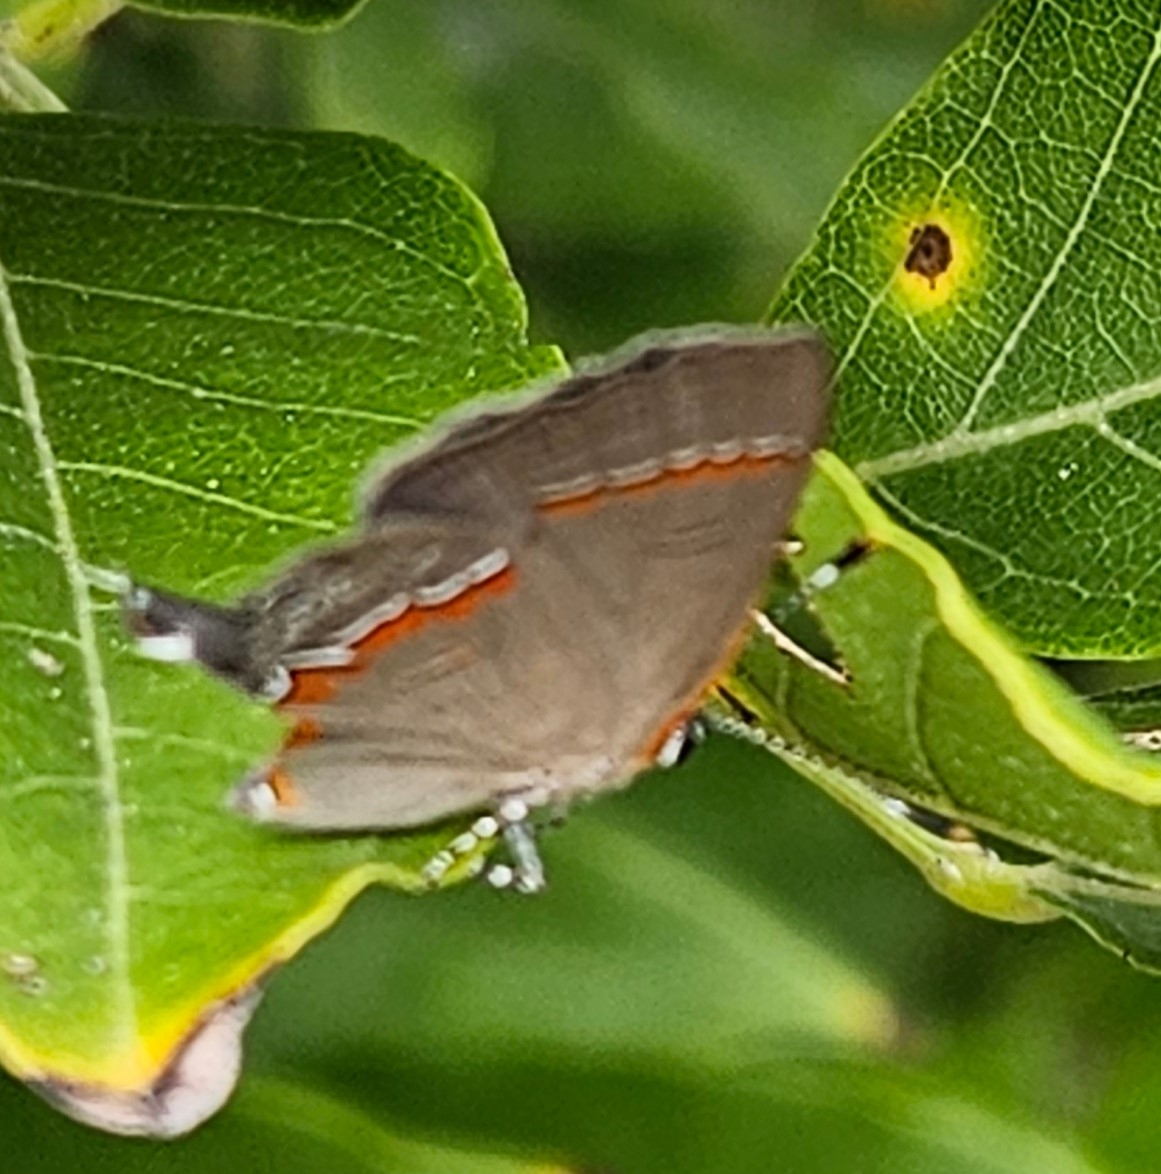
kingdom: Animalia
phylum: Arthropoda
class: Insecta
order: Lepidoptera
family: Lycaenidae
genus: Calycopis
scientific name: Calycopis cecrops
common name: Red-banded hairstreak
